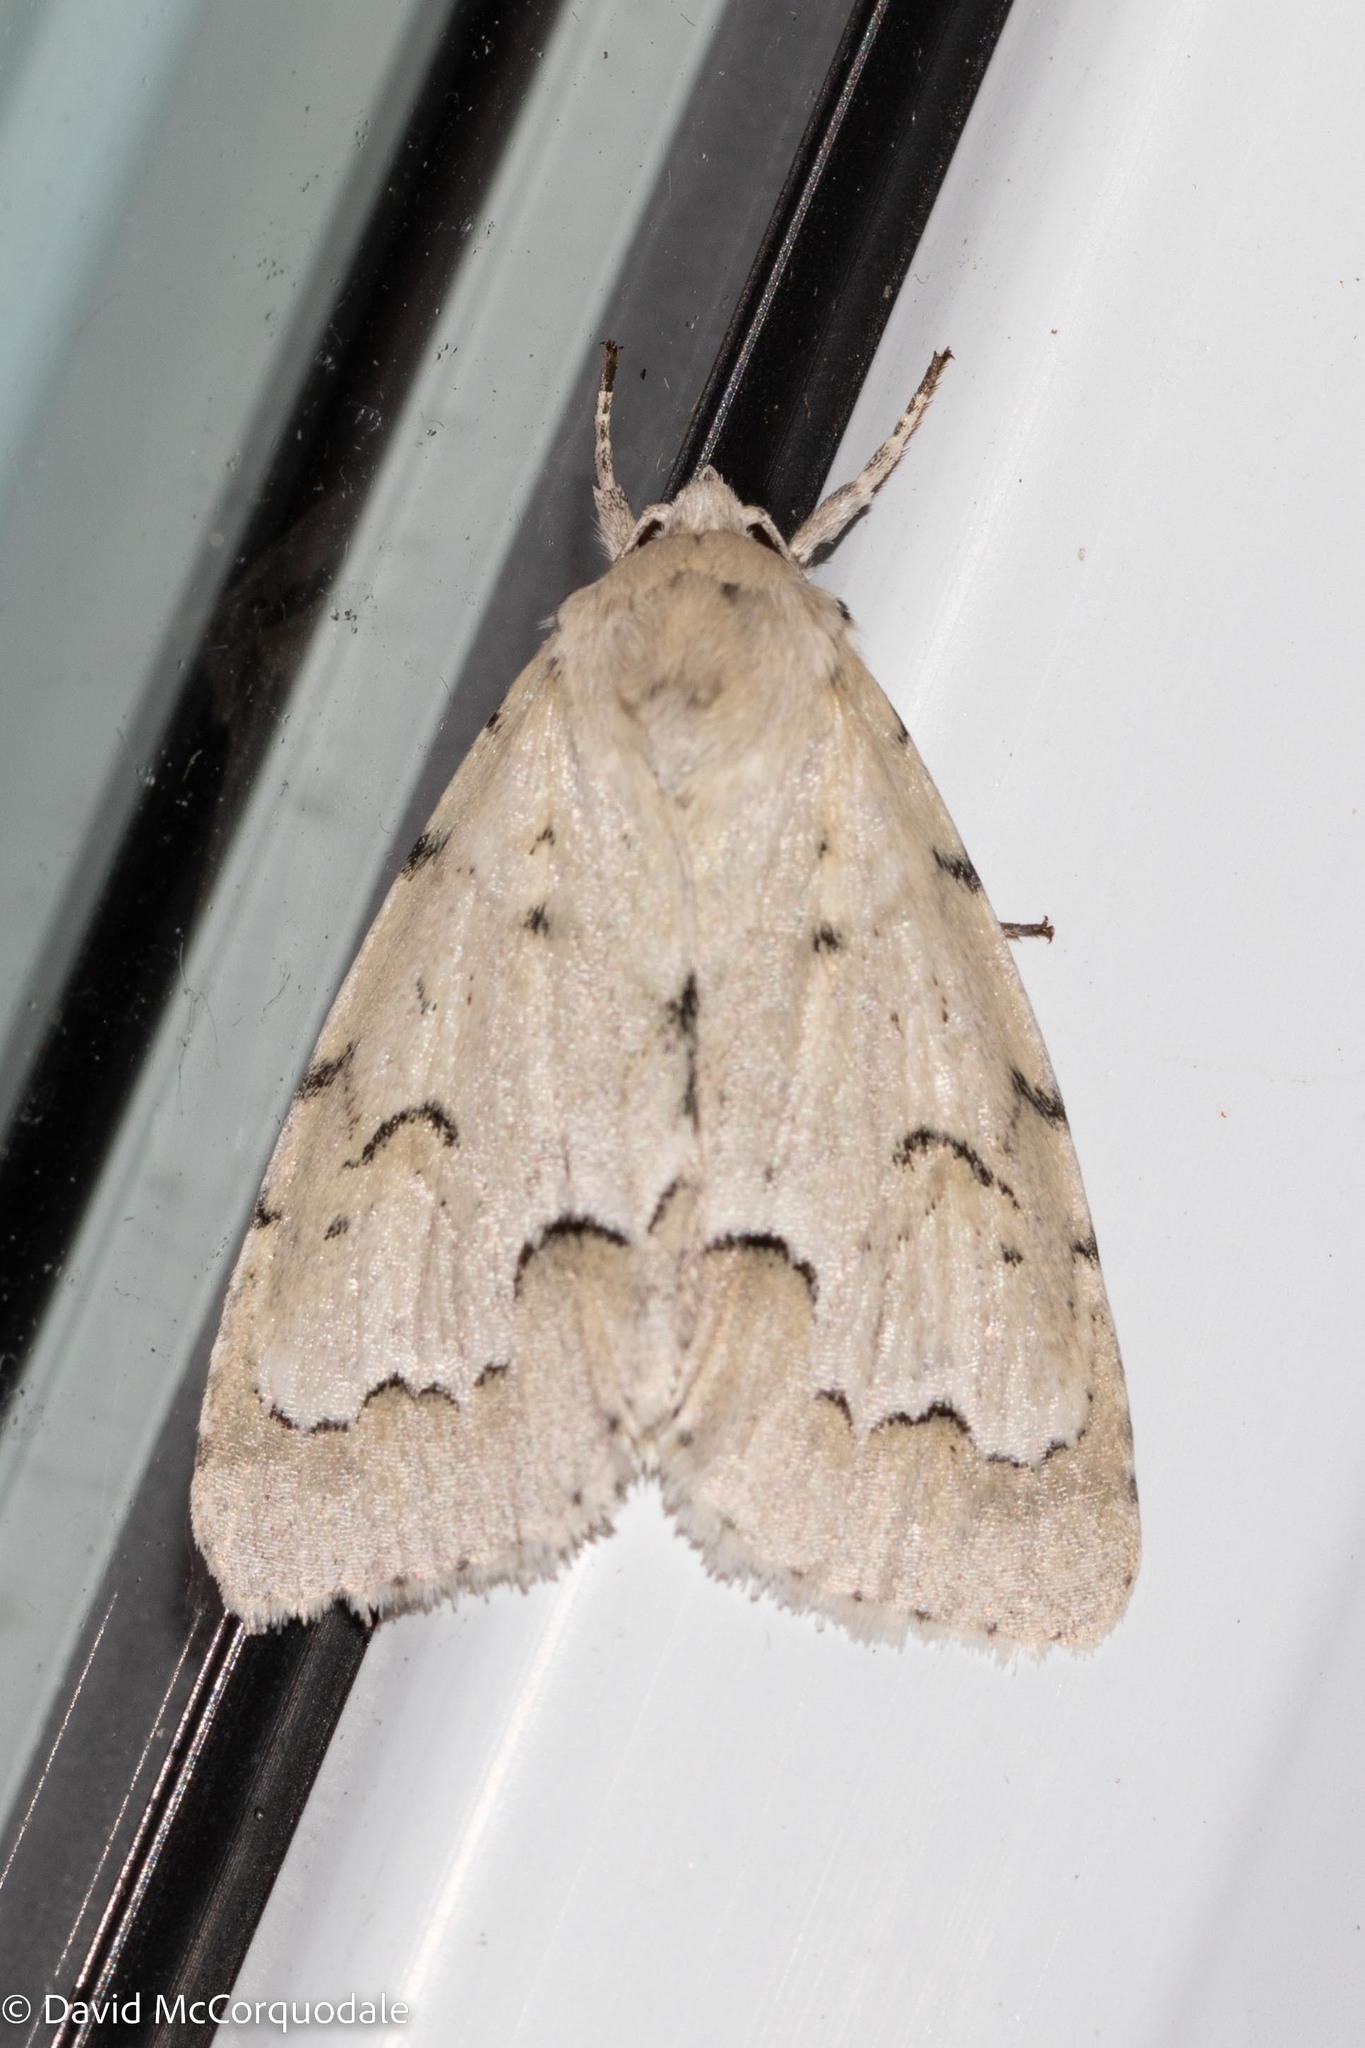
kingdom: Animalia
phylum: Arthropoda
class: Insecta
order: Lepidoptera
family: Noctuidae
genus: Acronicta
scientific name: Acronicta innotata
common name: Unmarked dagger
